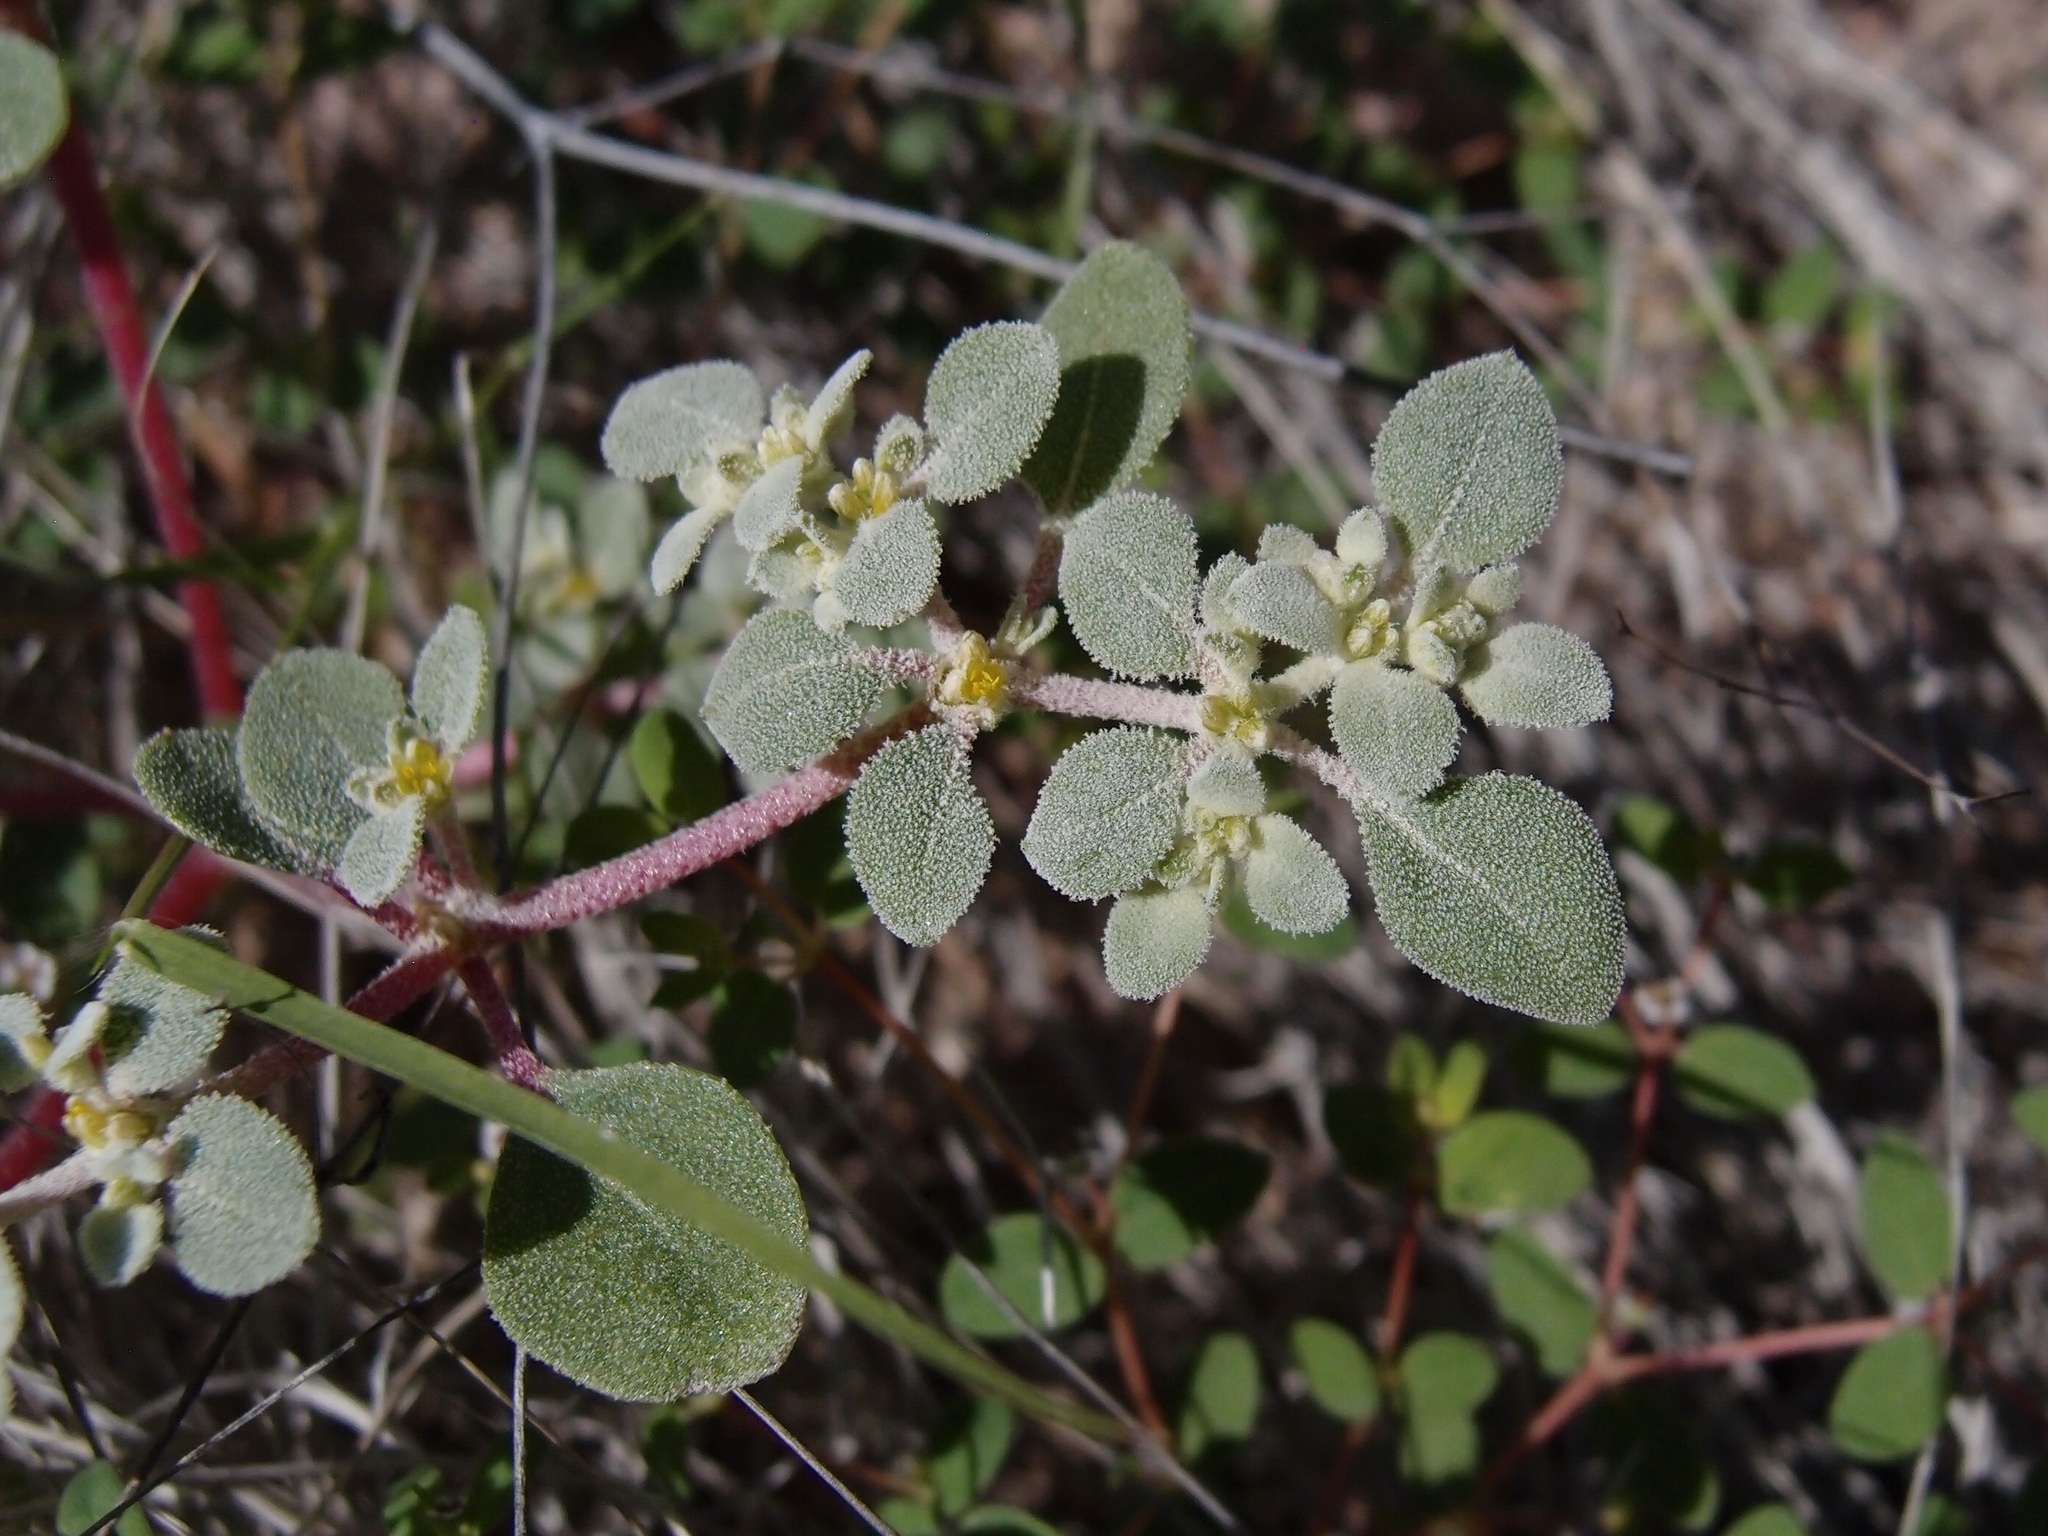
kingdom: Plantae
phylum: Tracheophyta
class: Magnoliopsida
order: Caryophyllales
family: Amaranthaceae
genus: Tidestromia
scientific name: Tidestromia lanuginosa
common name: Woolly tidestromia
